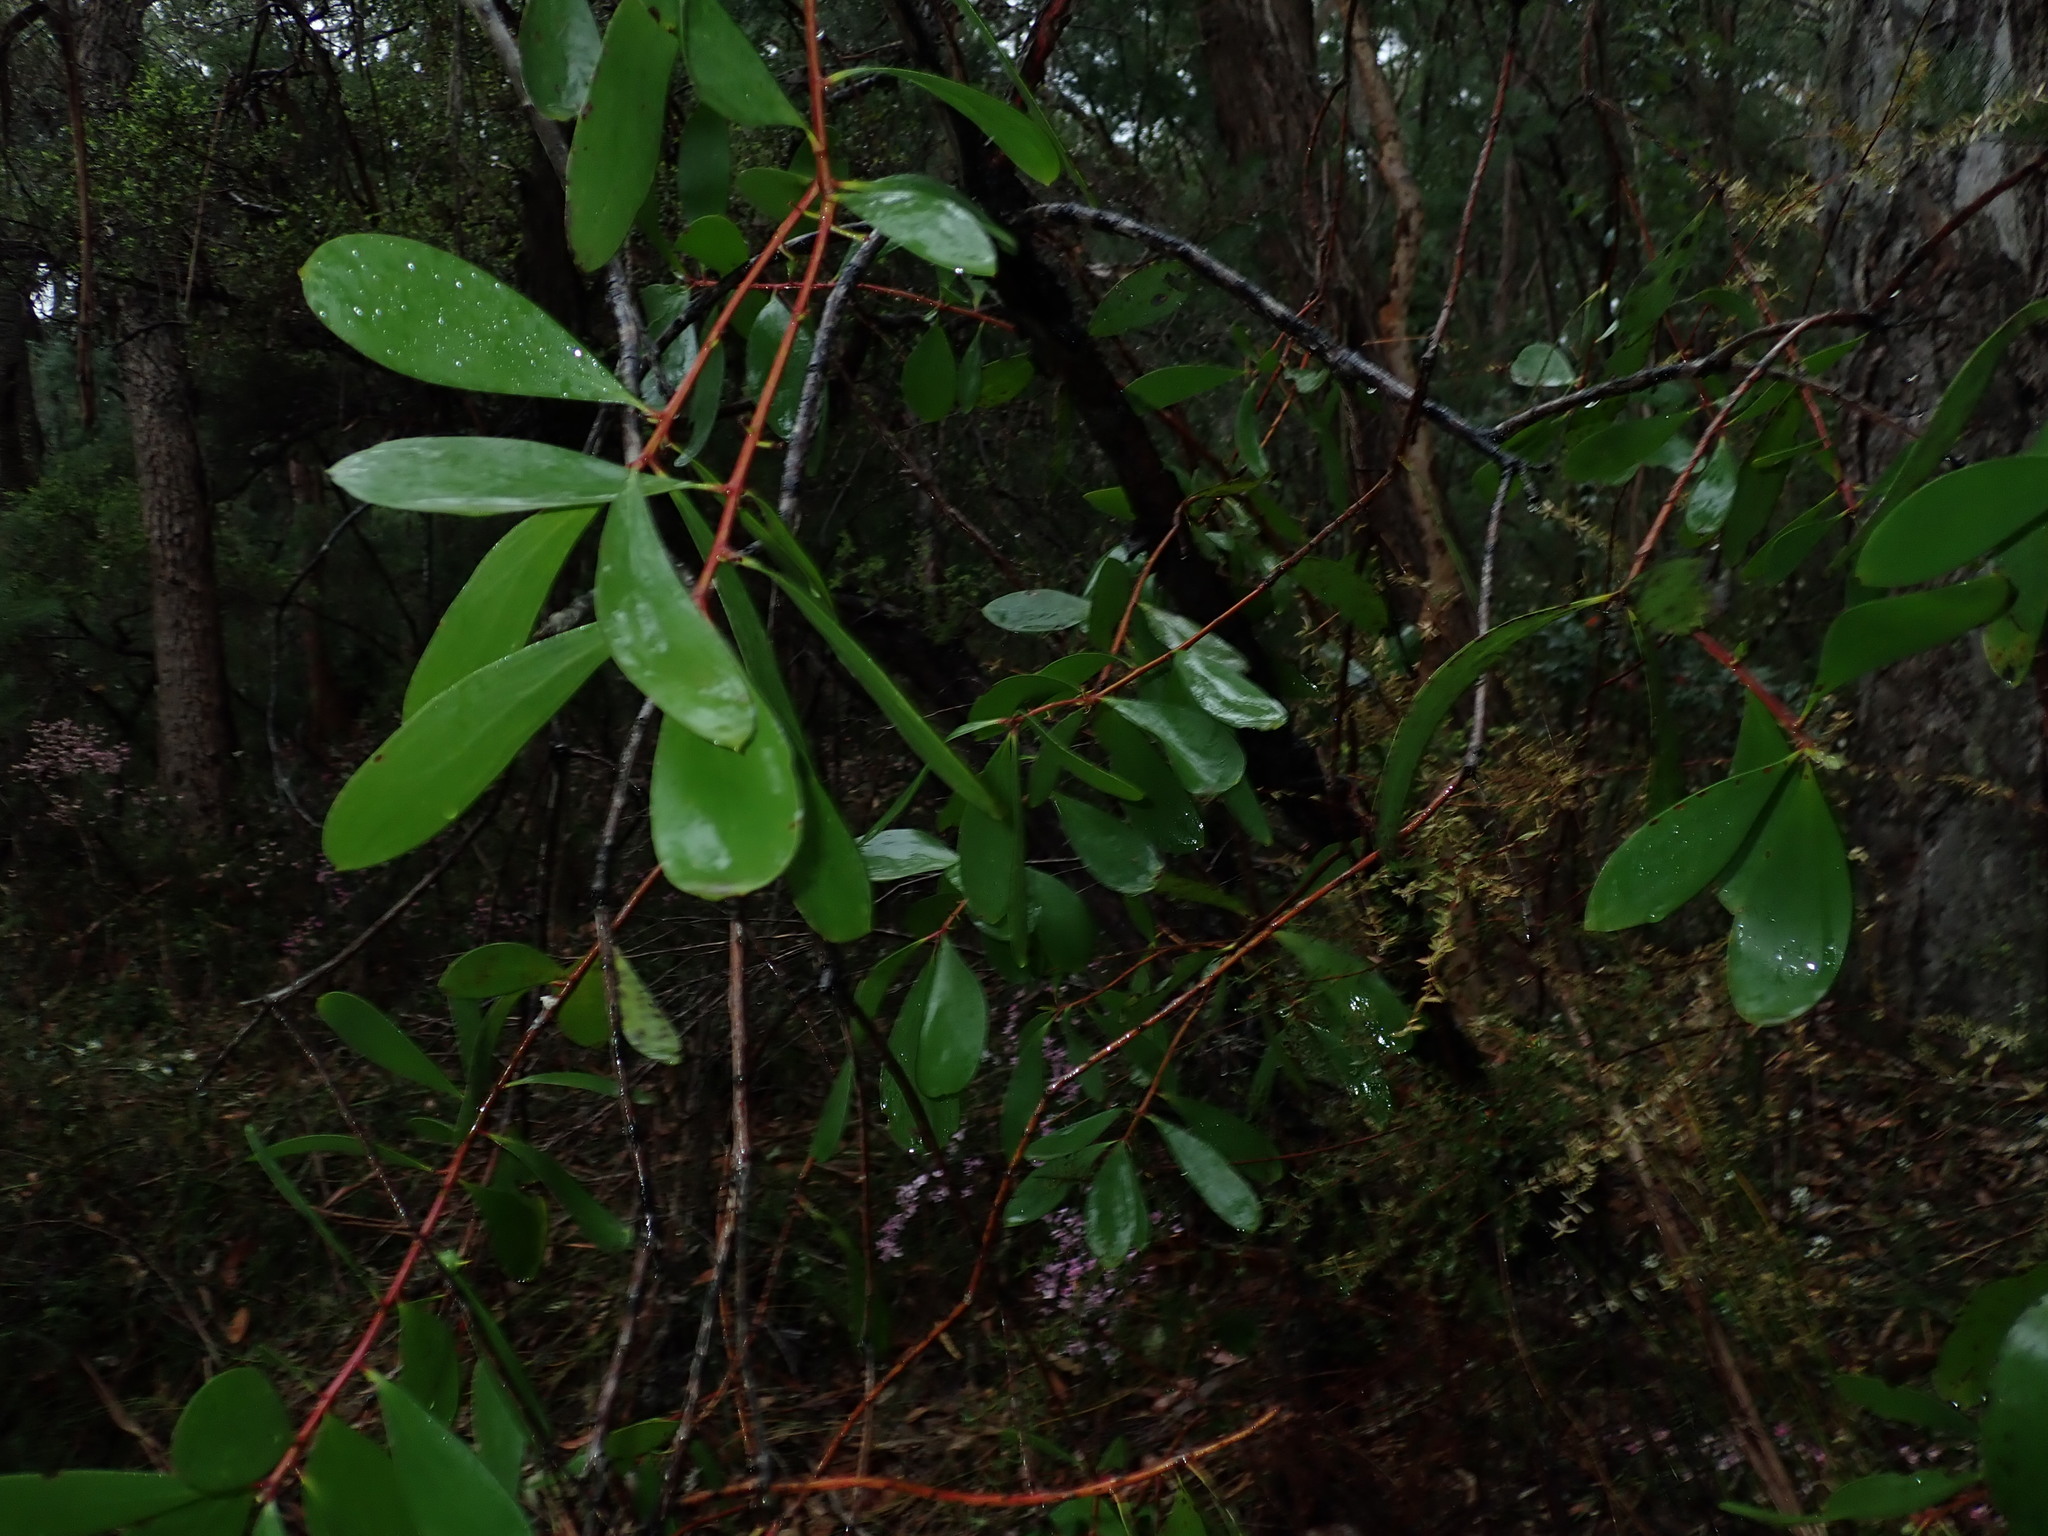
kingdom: Plantae
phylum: Tracheophyta
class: Magnoliopsida
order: Proteales
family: Proteaceae
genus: Persoonia
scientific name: Persoonia levis
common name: Smooth geebung
